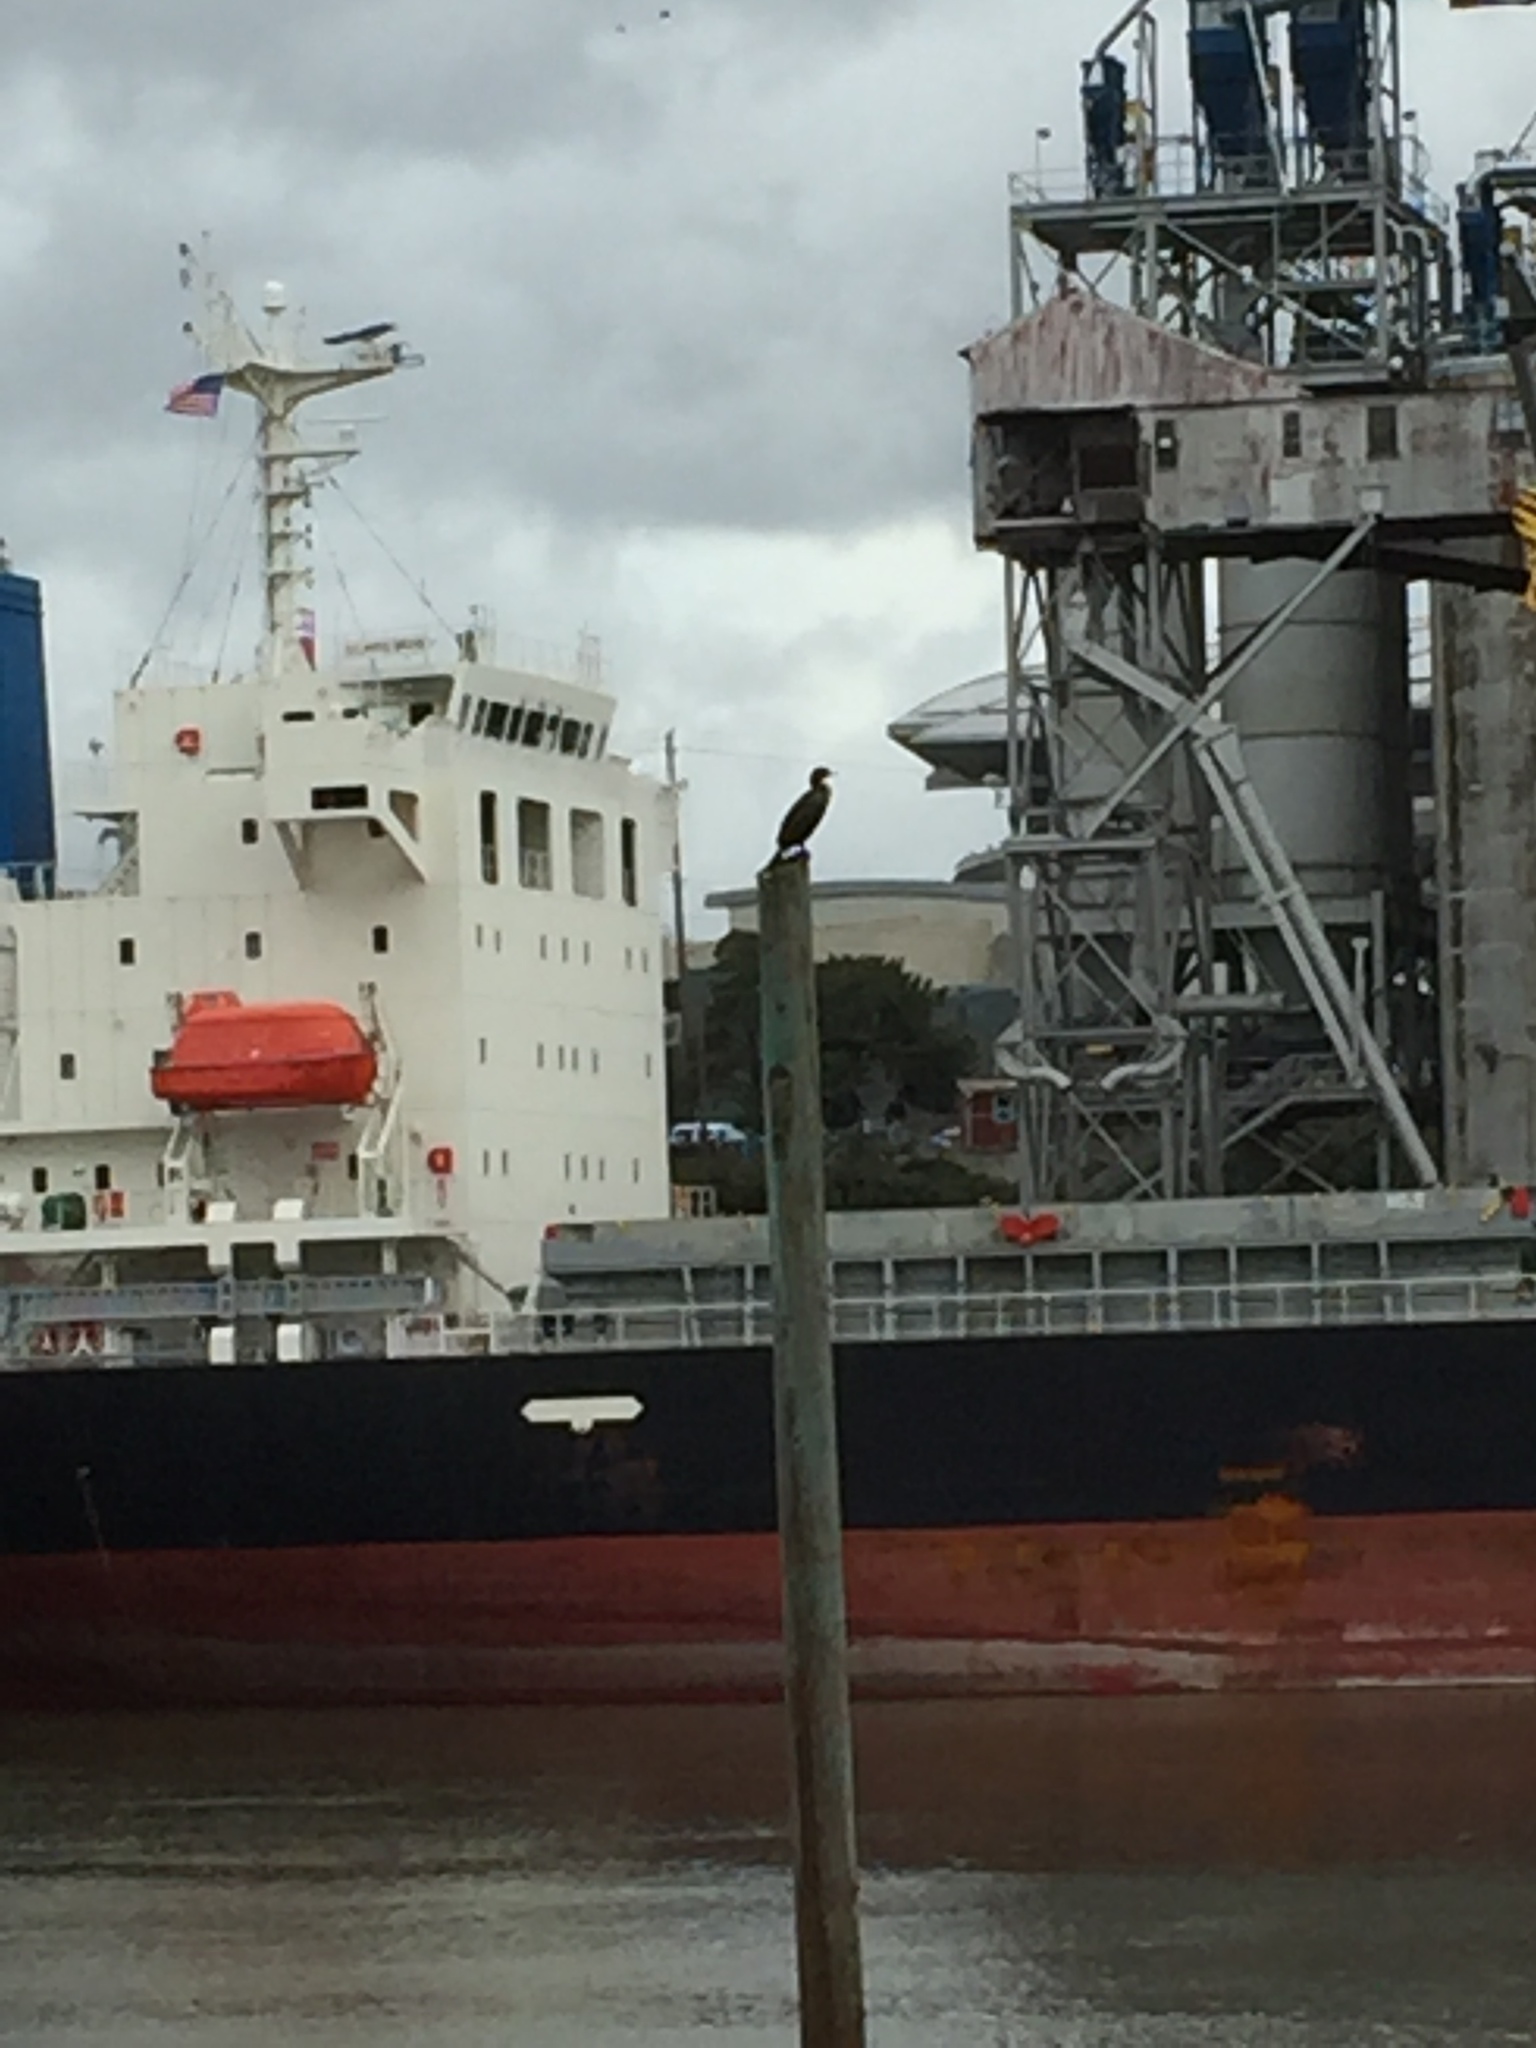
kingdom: Animalia
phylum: Chordata
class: Aves
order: Suliformes
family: Phalacrocoracidae
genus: Phalacrocorax
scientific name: Phalacrocorax auritus
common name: Double-crested cormorant
